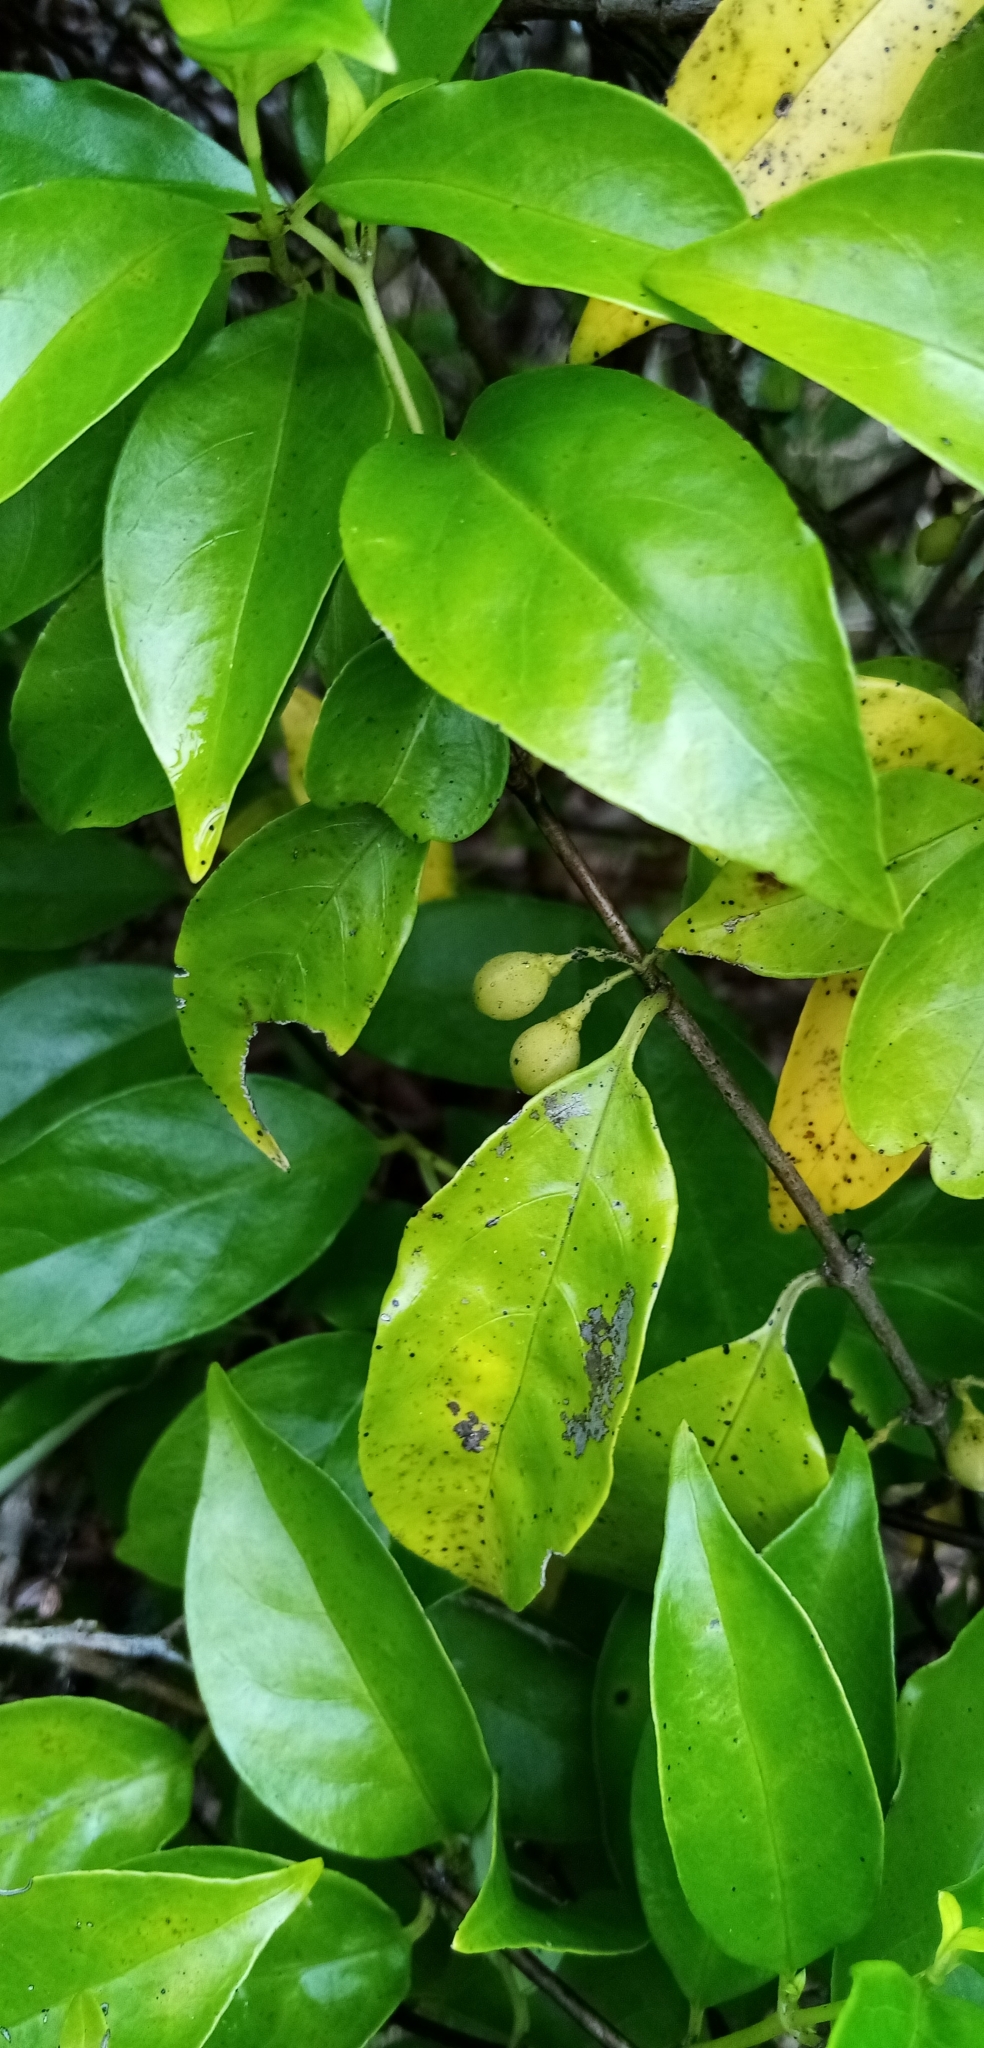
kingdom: Plantae
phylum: Tracheophyta
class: Magnoliopsida
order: Gentianales
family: Loganiaceae
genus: Geniostoma
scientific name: Geniostoma ligustrifolium
